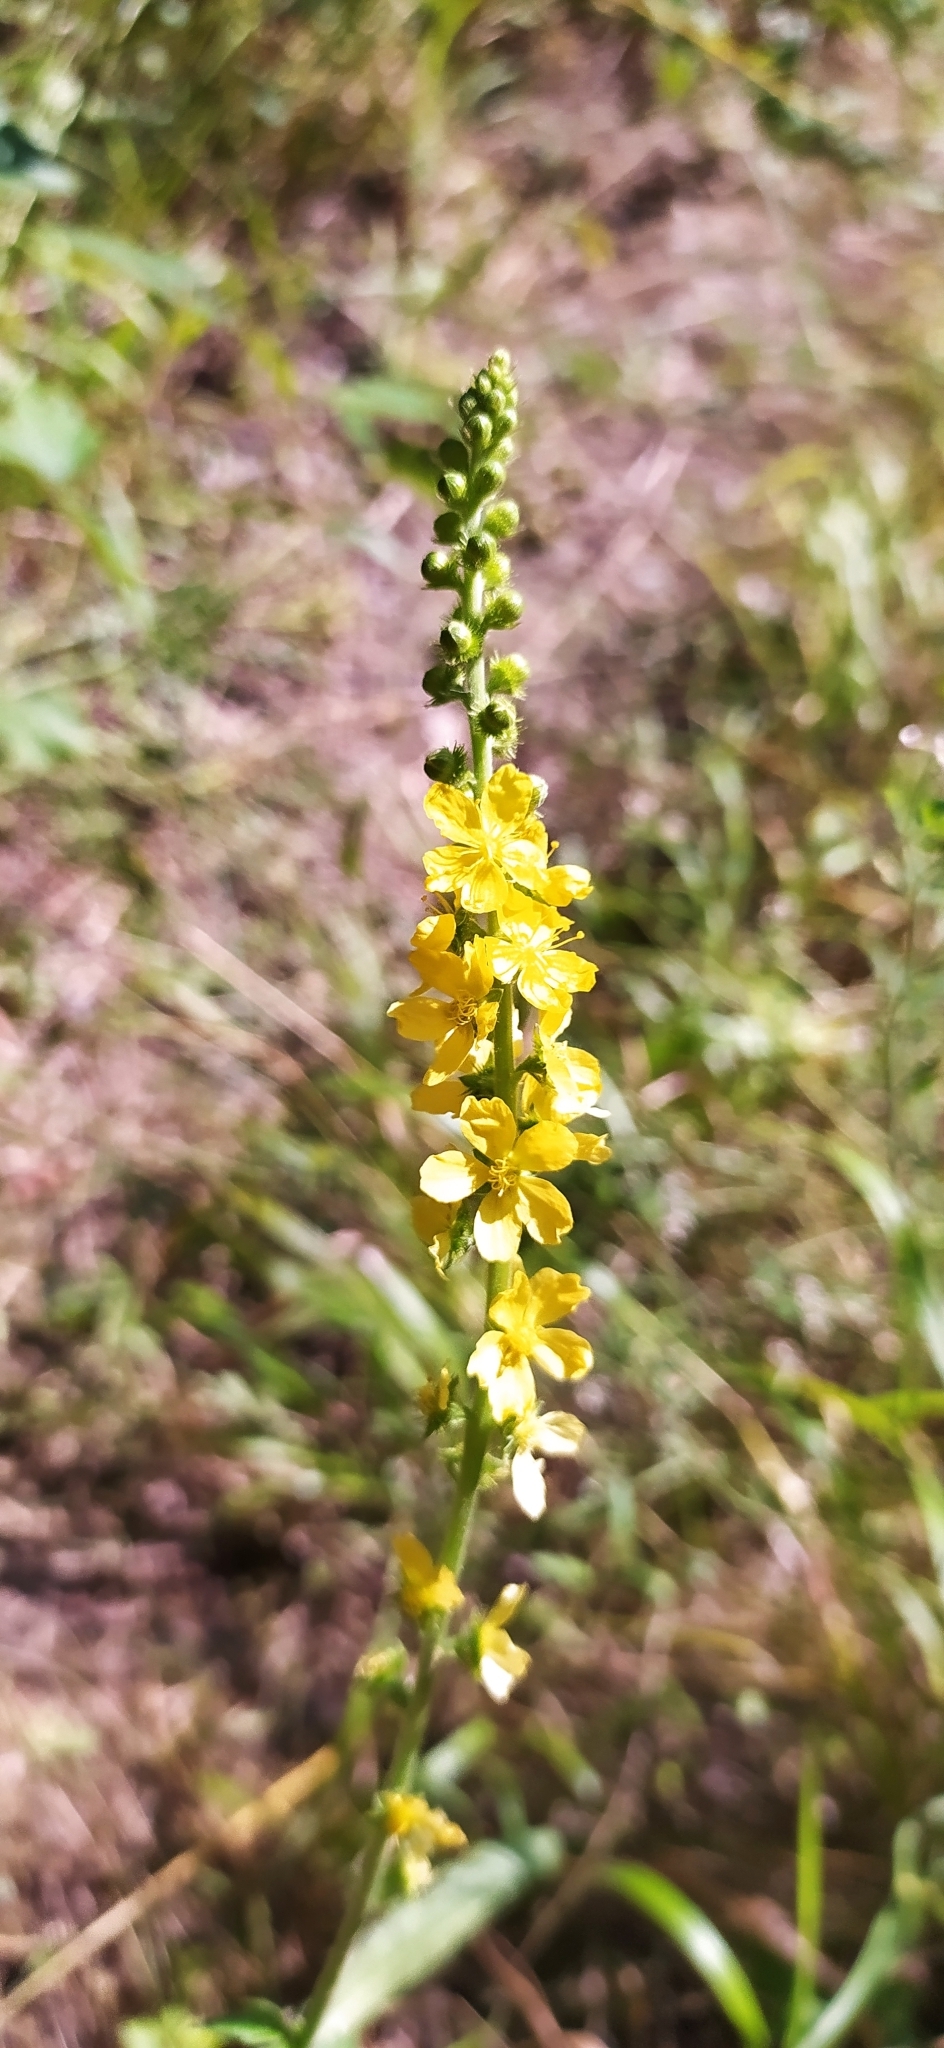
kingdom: Plantae
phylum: Tracheophyta
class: Magnoliopsida
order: Rosales
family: Rosaceae
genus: Agrimonia
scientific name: Agrimonia eupatoria
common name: Agrimony
